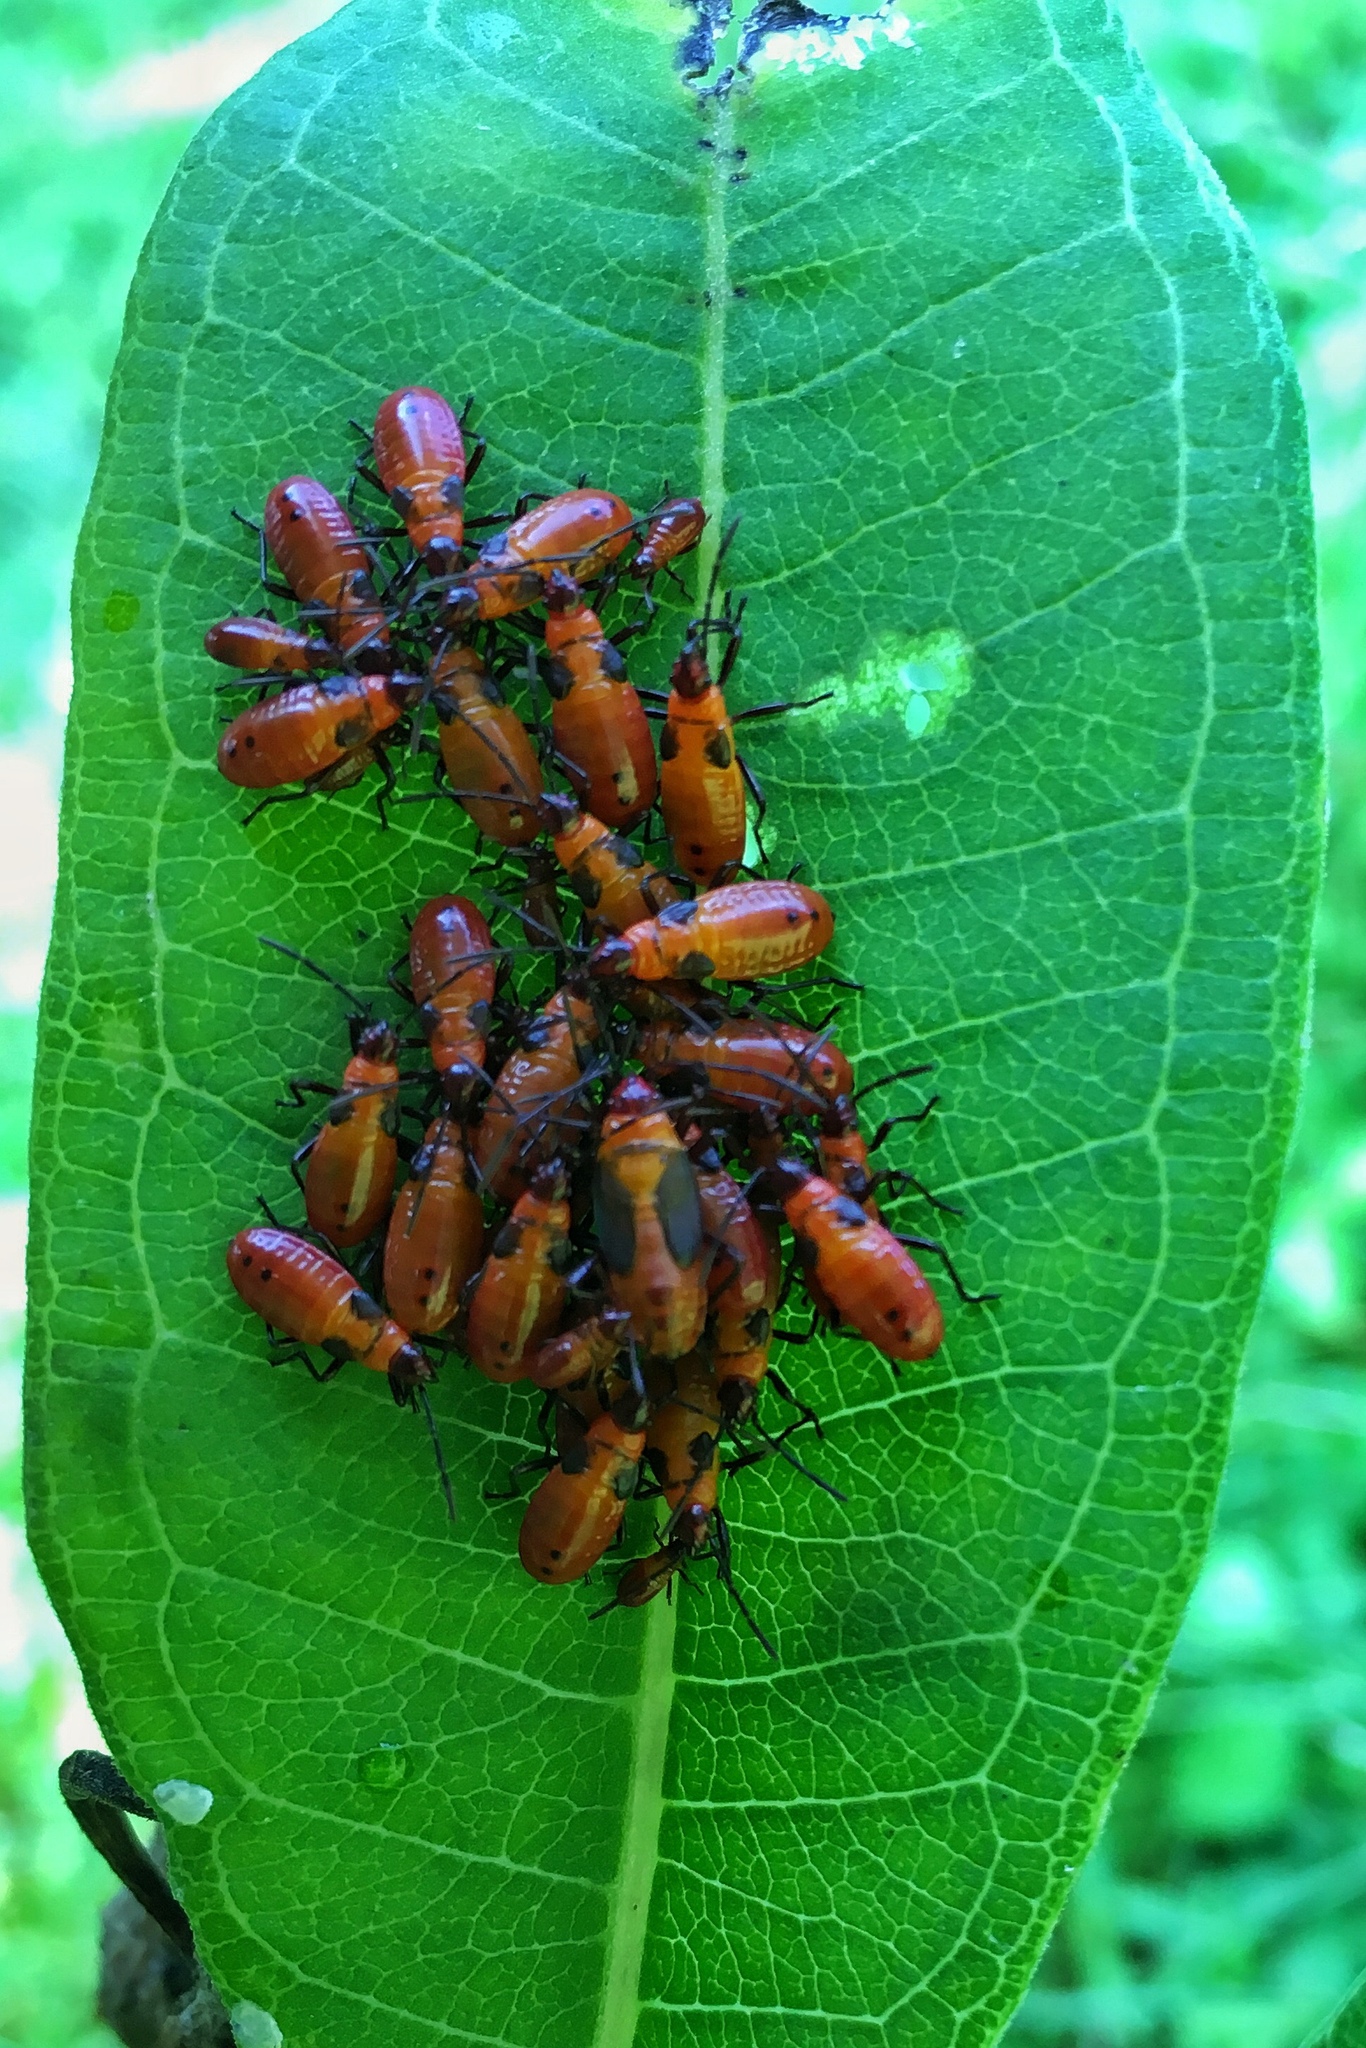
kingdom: Animalia
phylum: Arthropoda
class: Insecta
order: Hemiptera
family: Lygaeidae
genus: Oncopeltus
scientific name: Oncopeltus fasciatus
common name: Large milkweed bug
